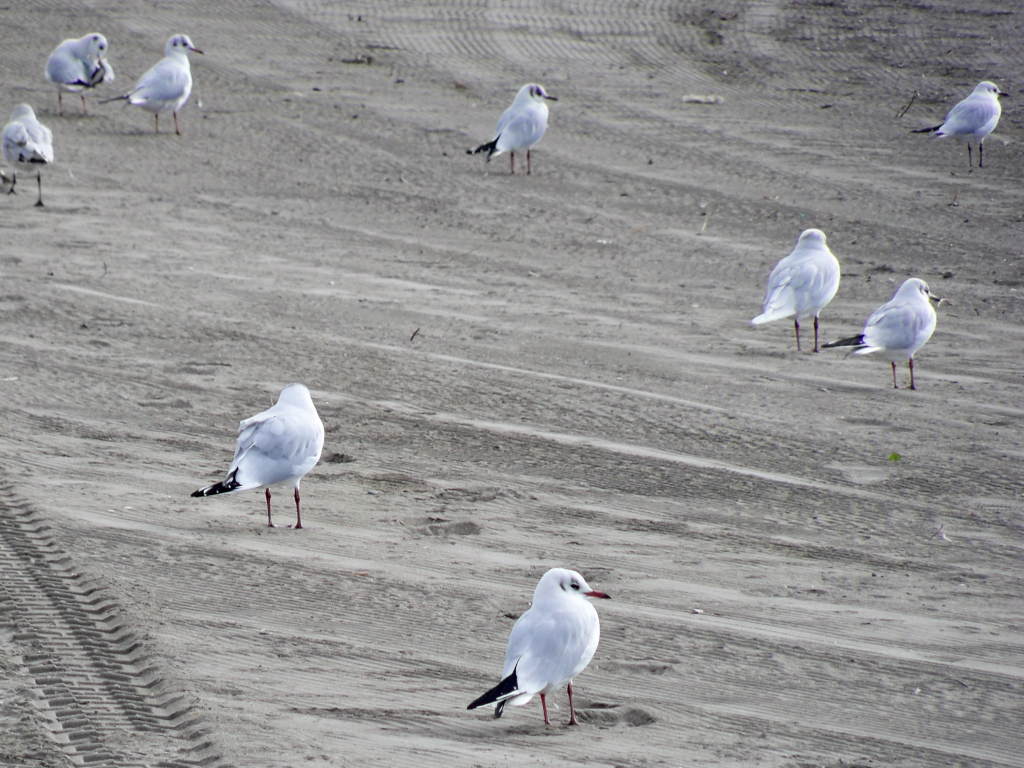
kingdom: Animalia
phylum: Chordata
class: Aves
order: Charadriiformes
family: Laridae
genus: Chroicocephalus
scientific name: Chroicocephalus ridibundus
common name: Black-headed gull
